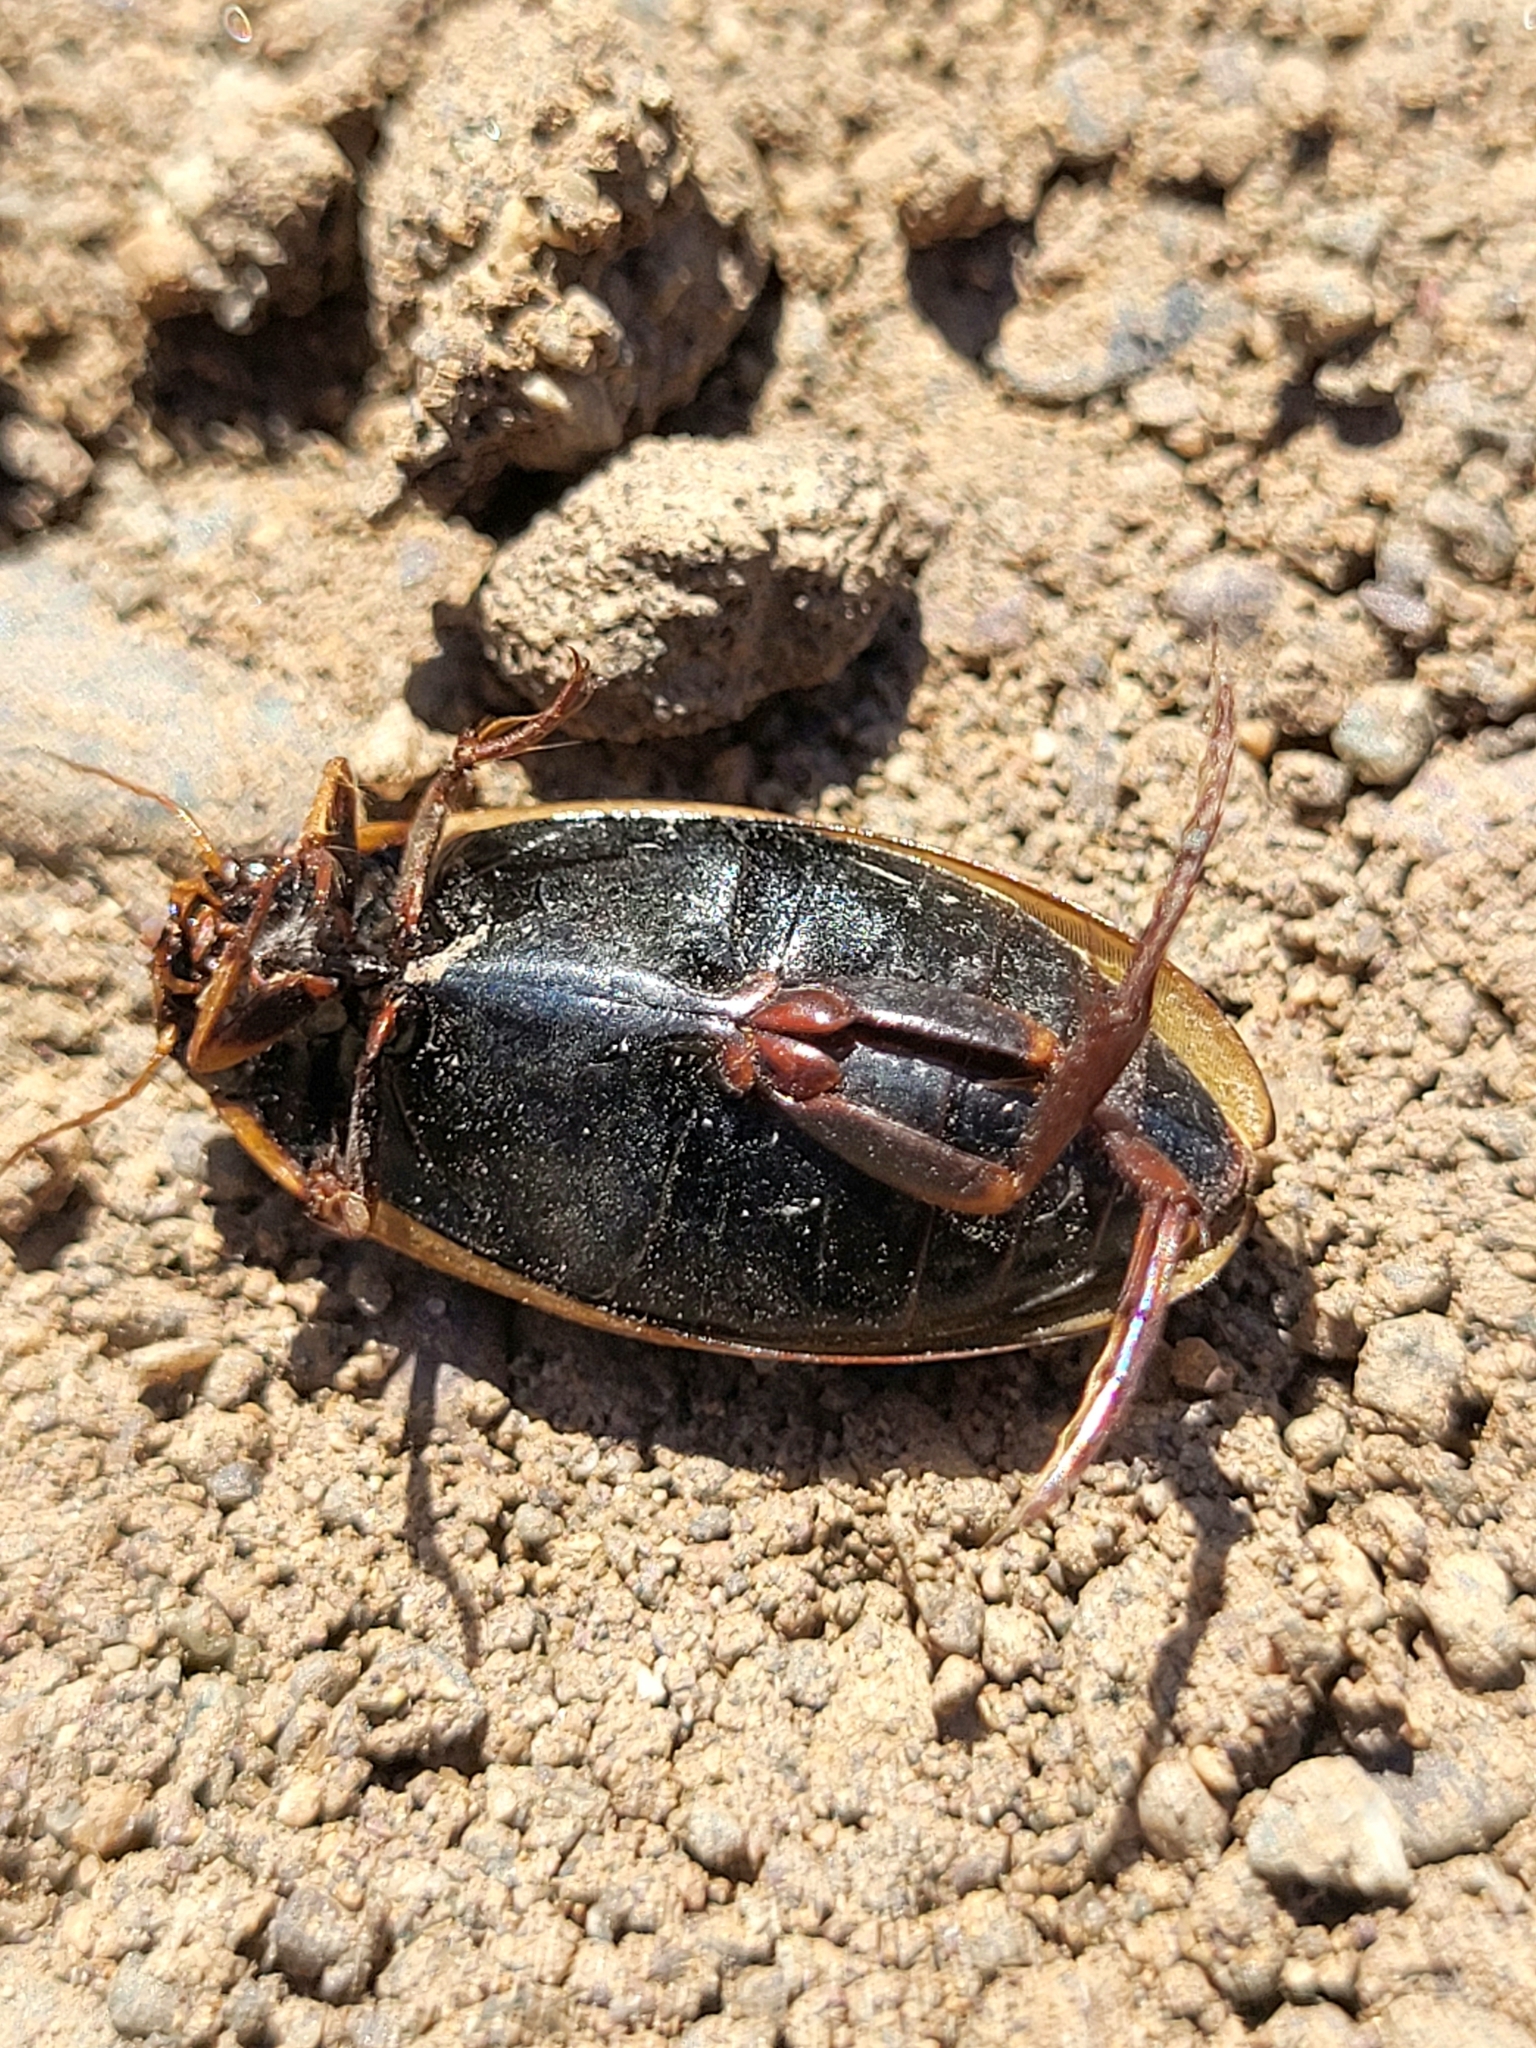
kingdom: Animalia
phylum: Arthropoda
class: Insecta
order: Coleoptera
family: Dytiscidae
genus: Colymbetes
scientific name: Colymbetes
